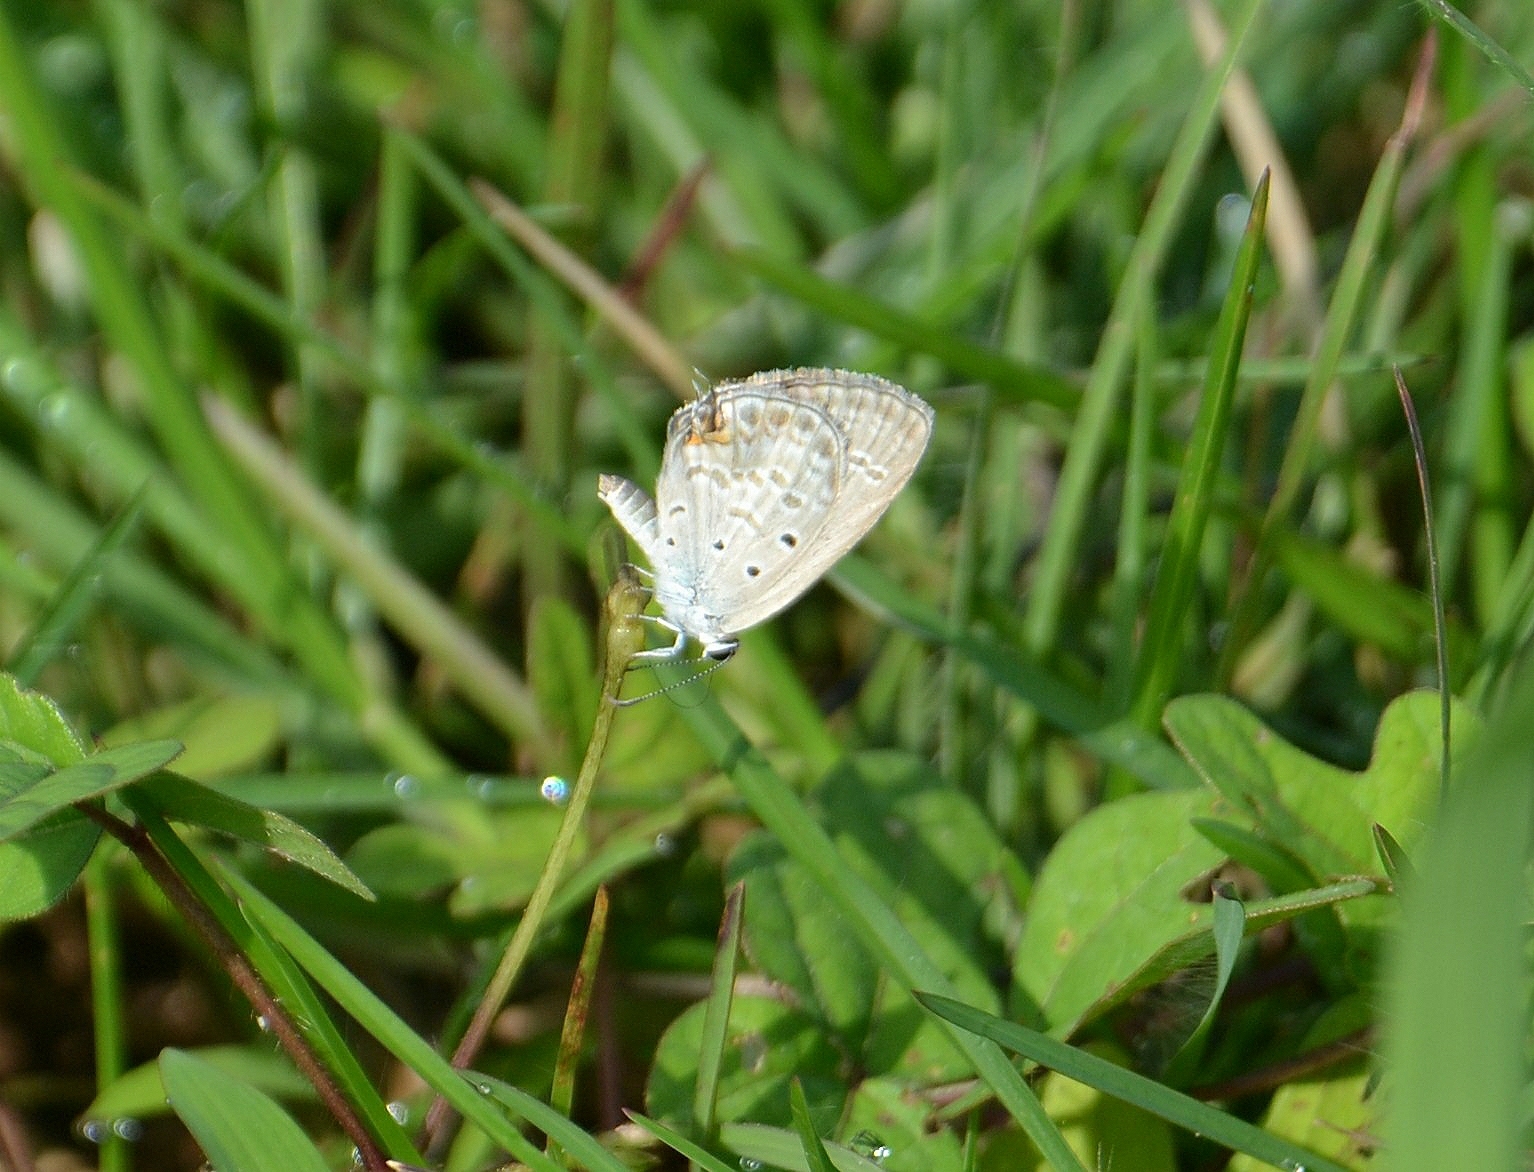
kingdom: Animalia
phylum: Arthropoda
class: Insecta
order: Lepidoptera
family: Lycaenidae
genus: Euchrysops
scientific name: Euchrysops cnejus
